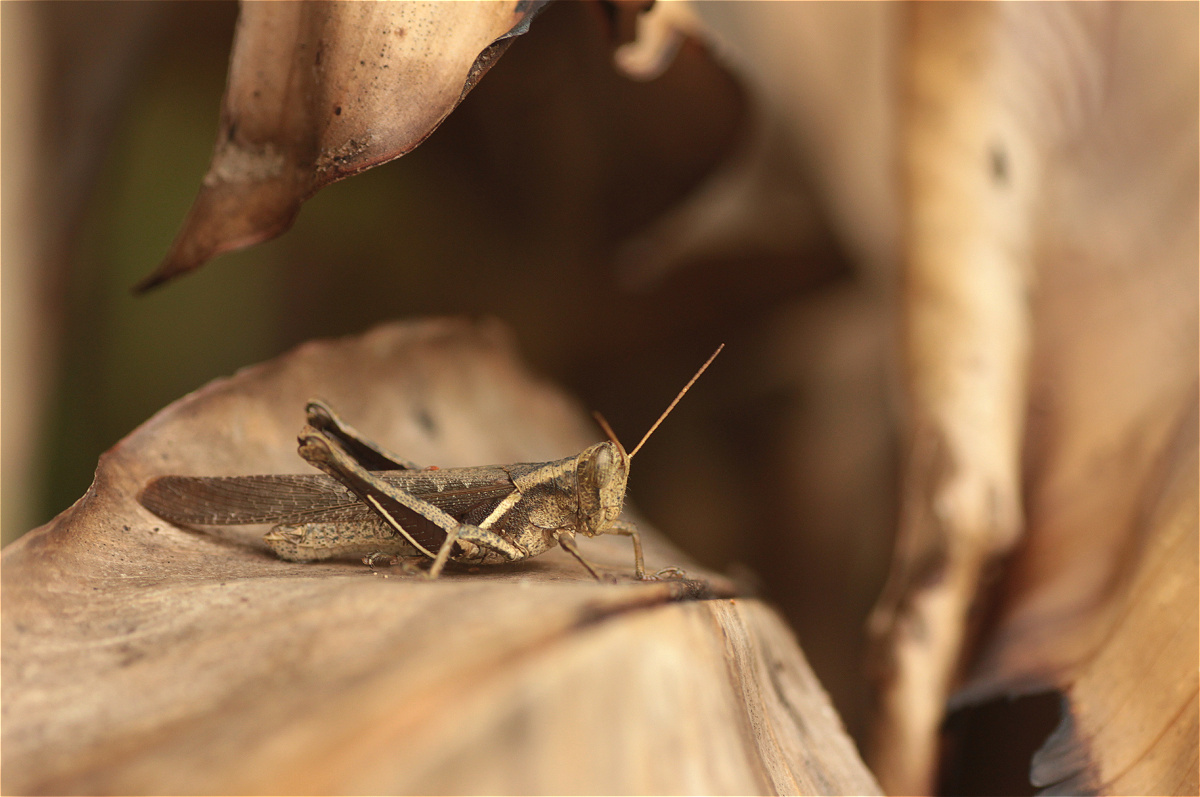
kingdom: Animalia
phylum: Arthropoda
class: Insecta
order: Orthoptera
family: Acrididae
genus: Abracris
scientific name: Abracris flavolineata
